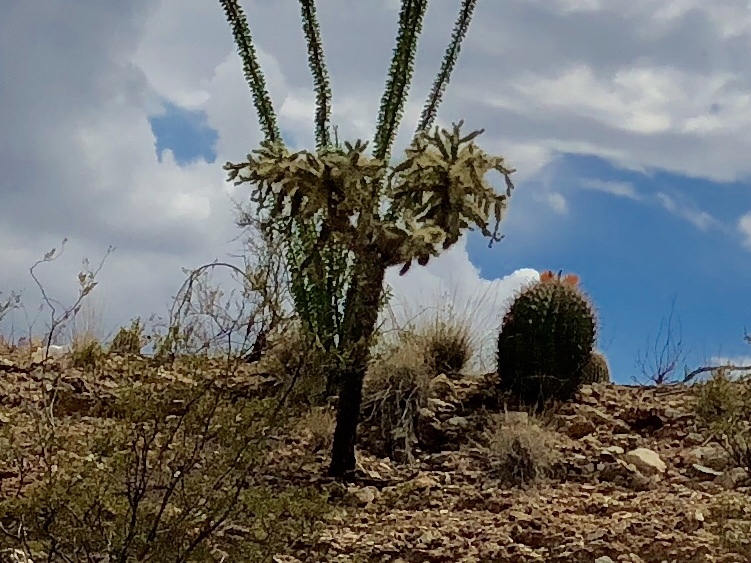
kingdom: Plantae
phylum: Tracheophyta
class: Magnoliopsida
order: Caryophyllales
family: Cactaceae
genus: Cylindropuntia
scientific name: Cylindropuntia fulgida
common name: Jumping cholla
